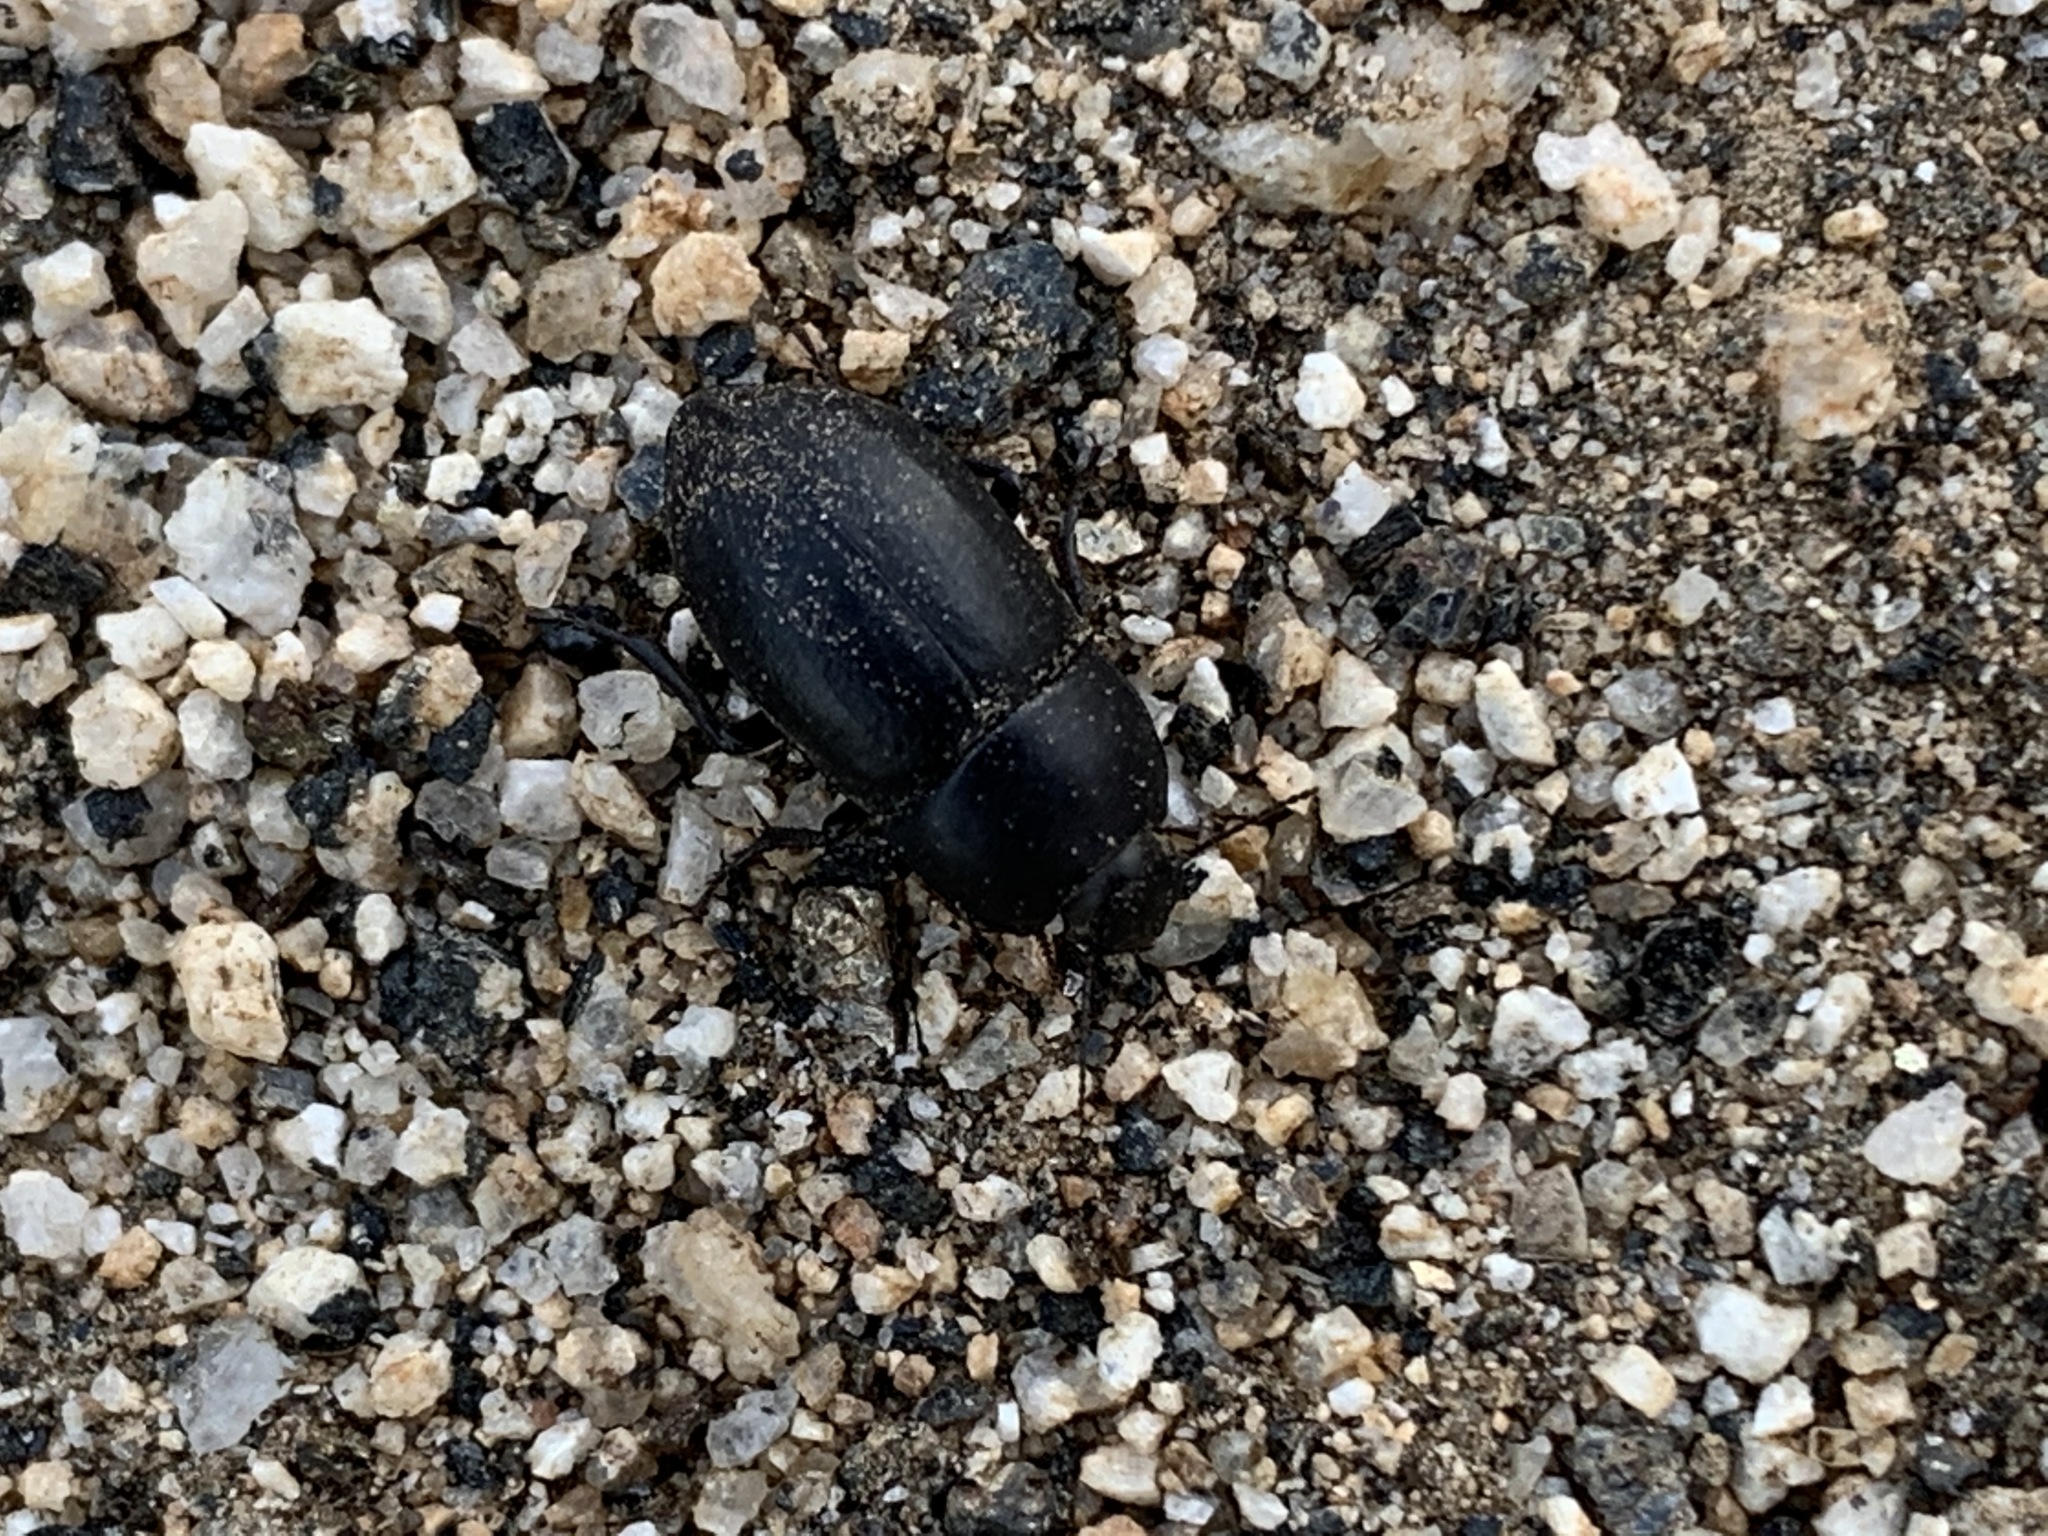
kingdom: Animalia
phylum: Arthropoda
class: Insecta
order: Coleoptera
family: Tenebrionidae
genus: Coniontis
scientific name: Coniontis
